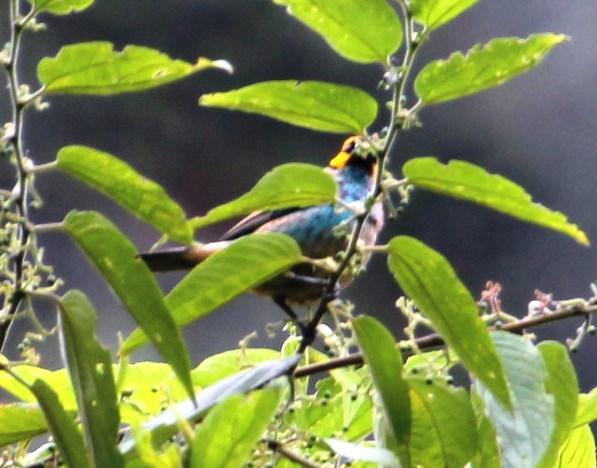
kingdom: Animalia
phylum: Chordata
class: Aves
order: Passeriformes
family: Thraupidae
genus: Tangara
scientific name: Tangara xanthocephala
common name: Saffron-crowned tanager
